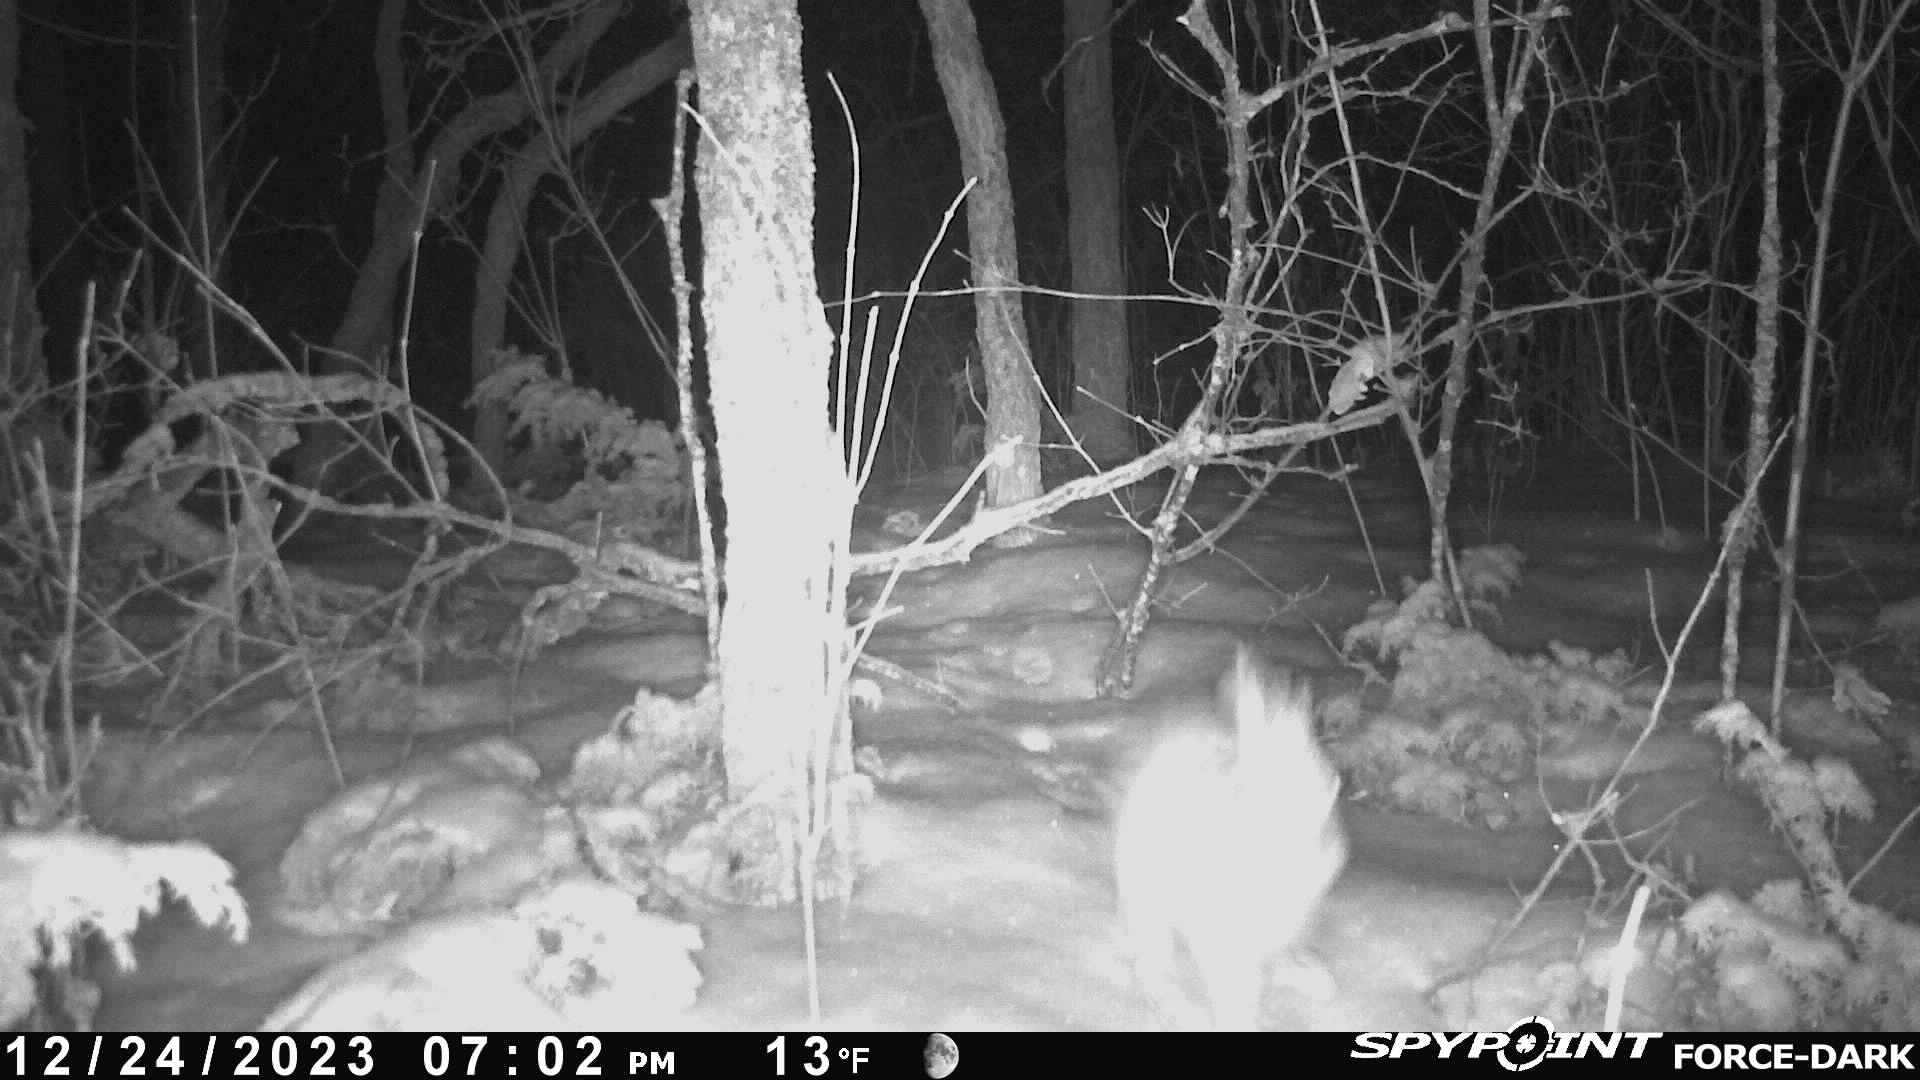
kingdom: Animalia
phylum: Chordata
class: Mammalia
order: Lagomorpha
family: Leporidae
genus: Lepus
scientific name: Lepus americanus
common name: Snowshoe hare
